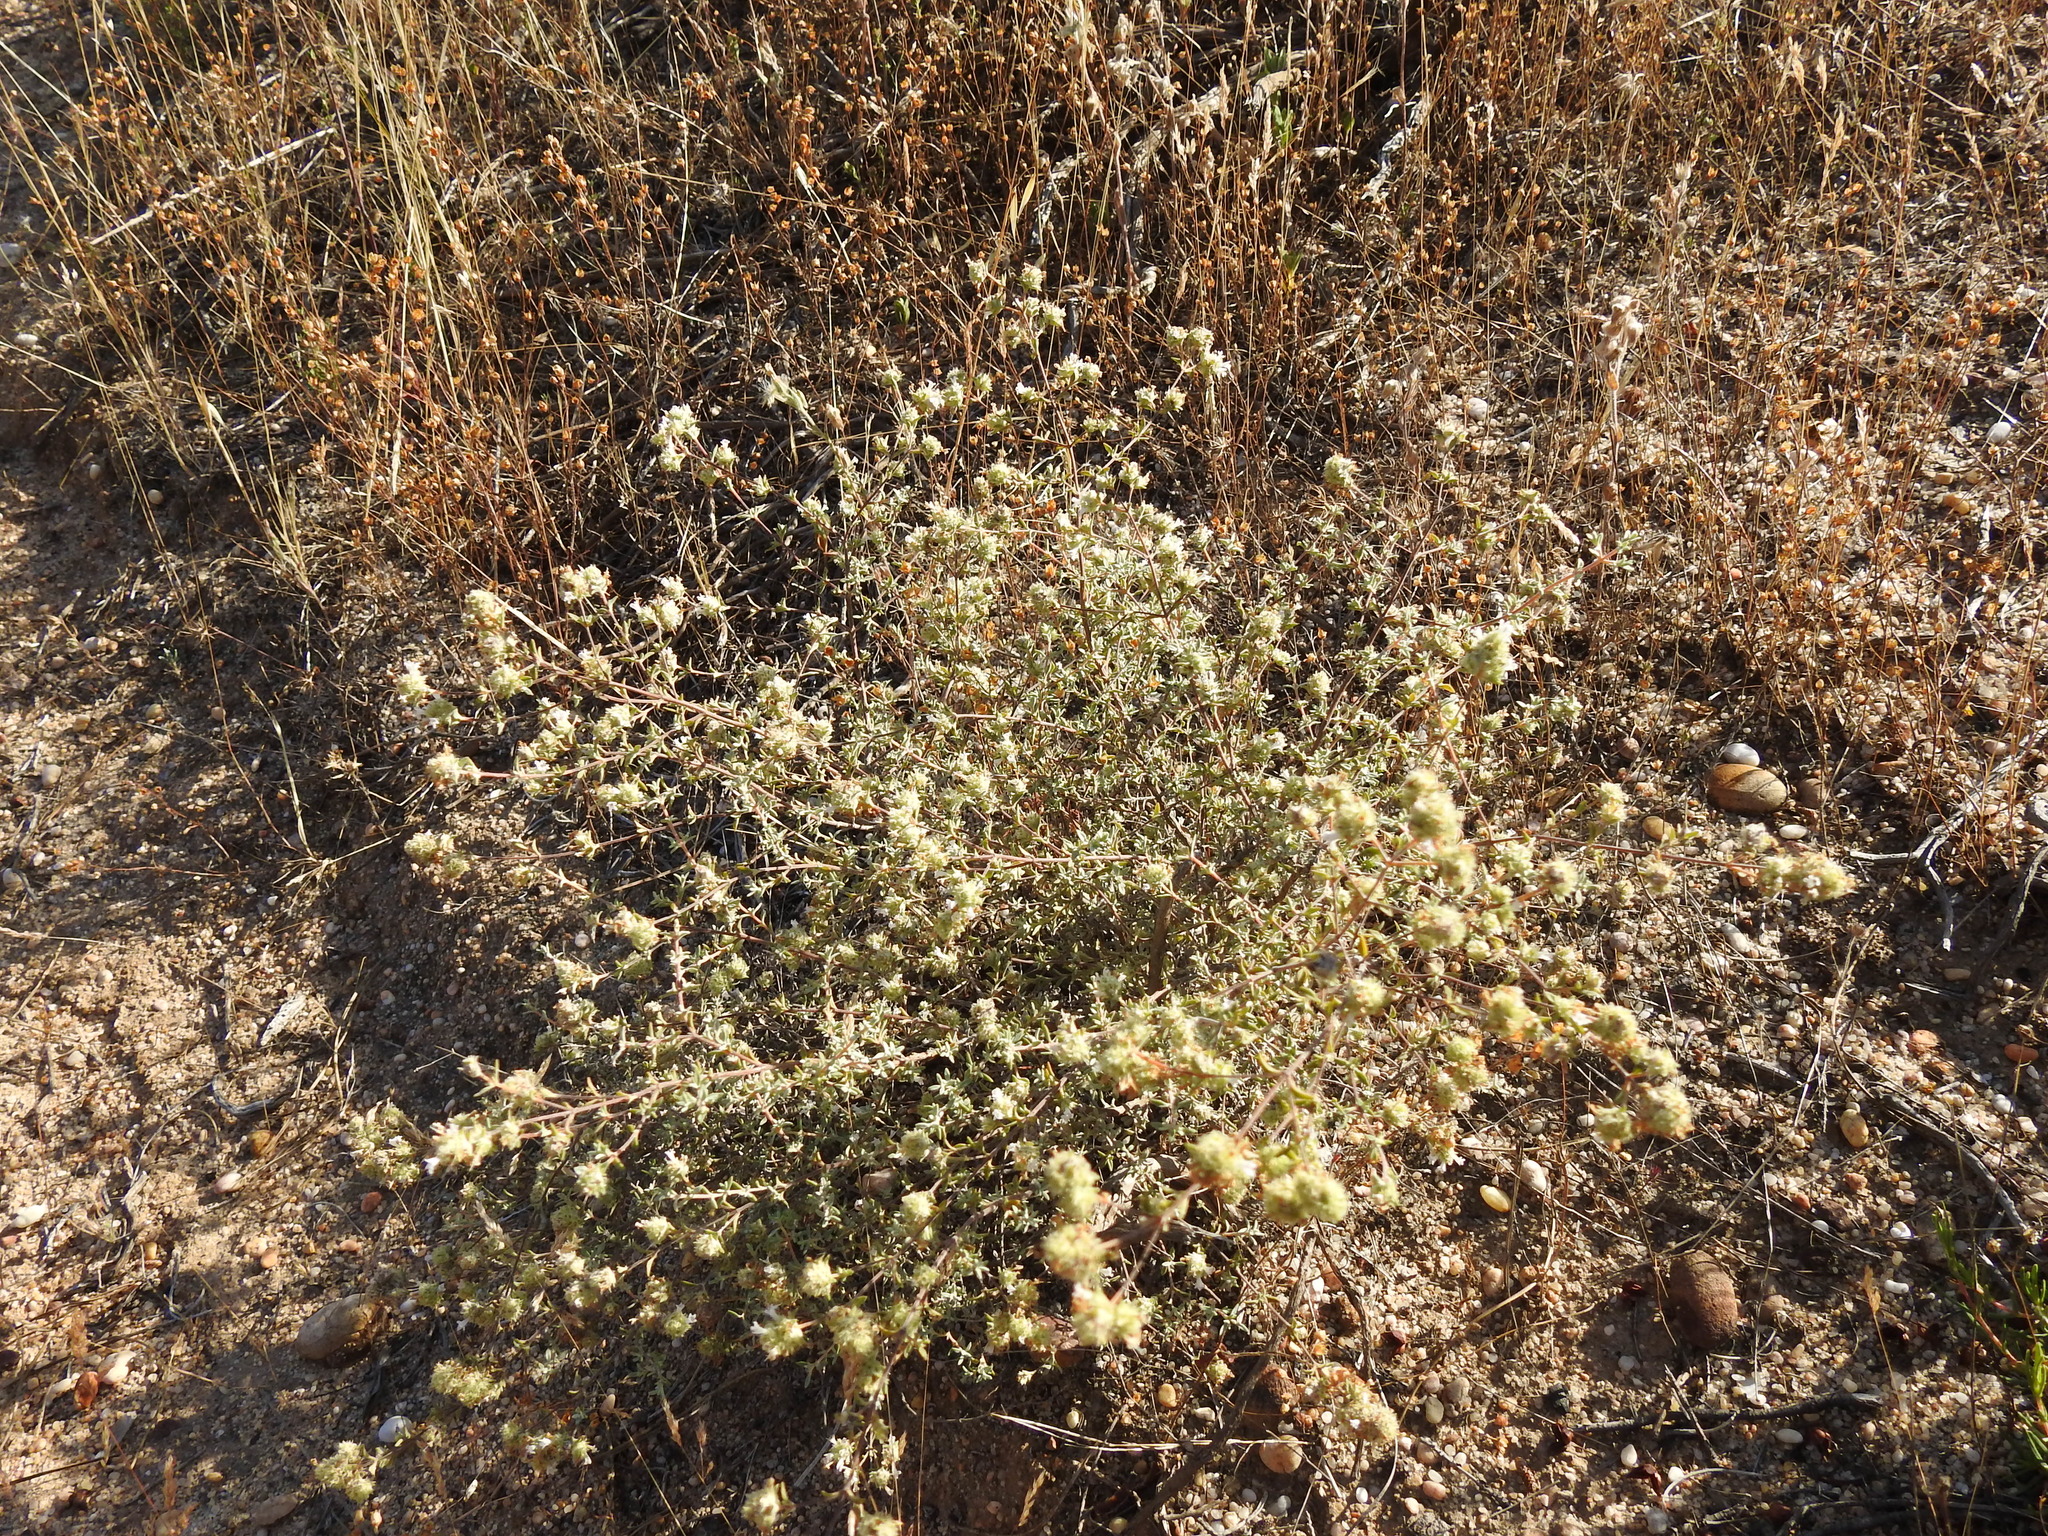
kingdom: Plantae
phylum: Tracheophyta
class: Magnoliopsida
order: Lamiales
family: Lamiaceae
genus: Thymus
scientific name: Thymus albicans
